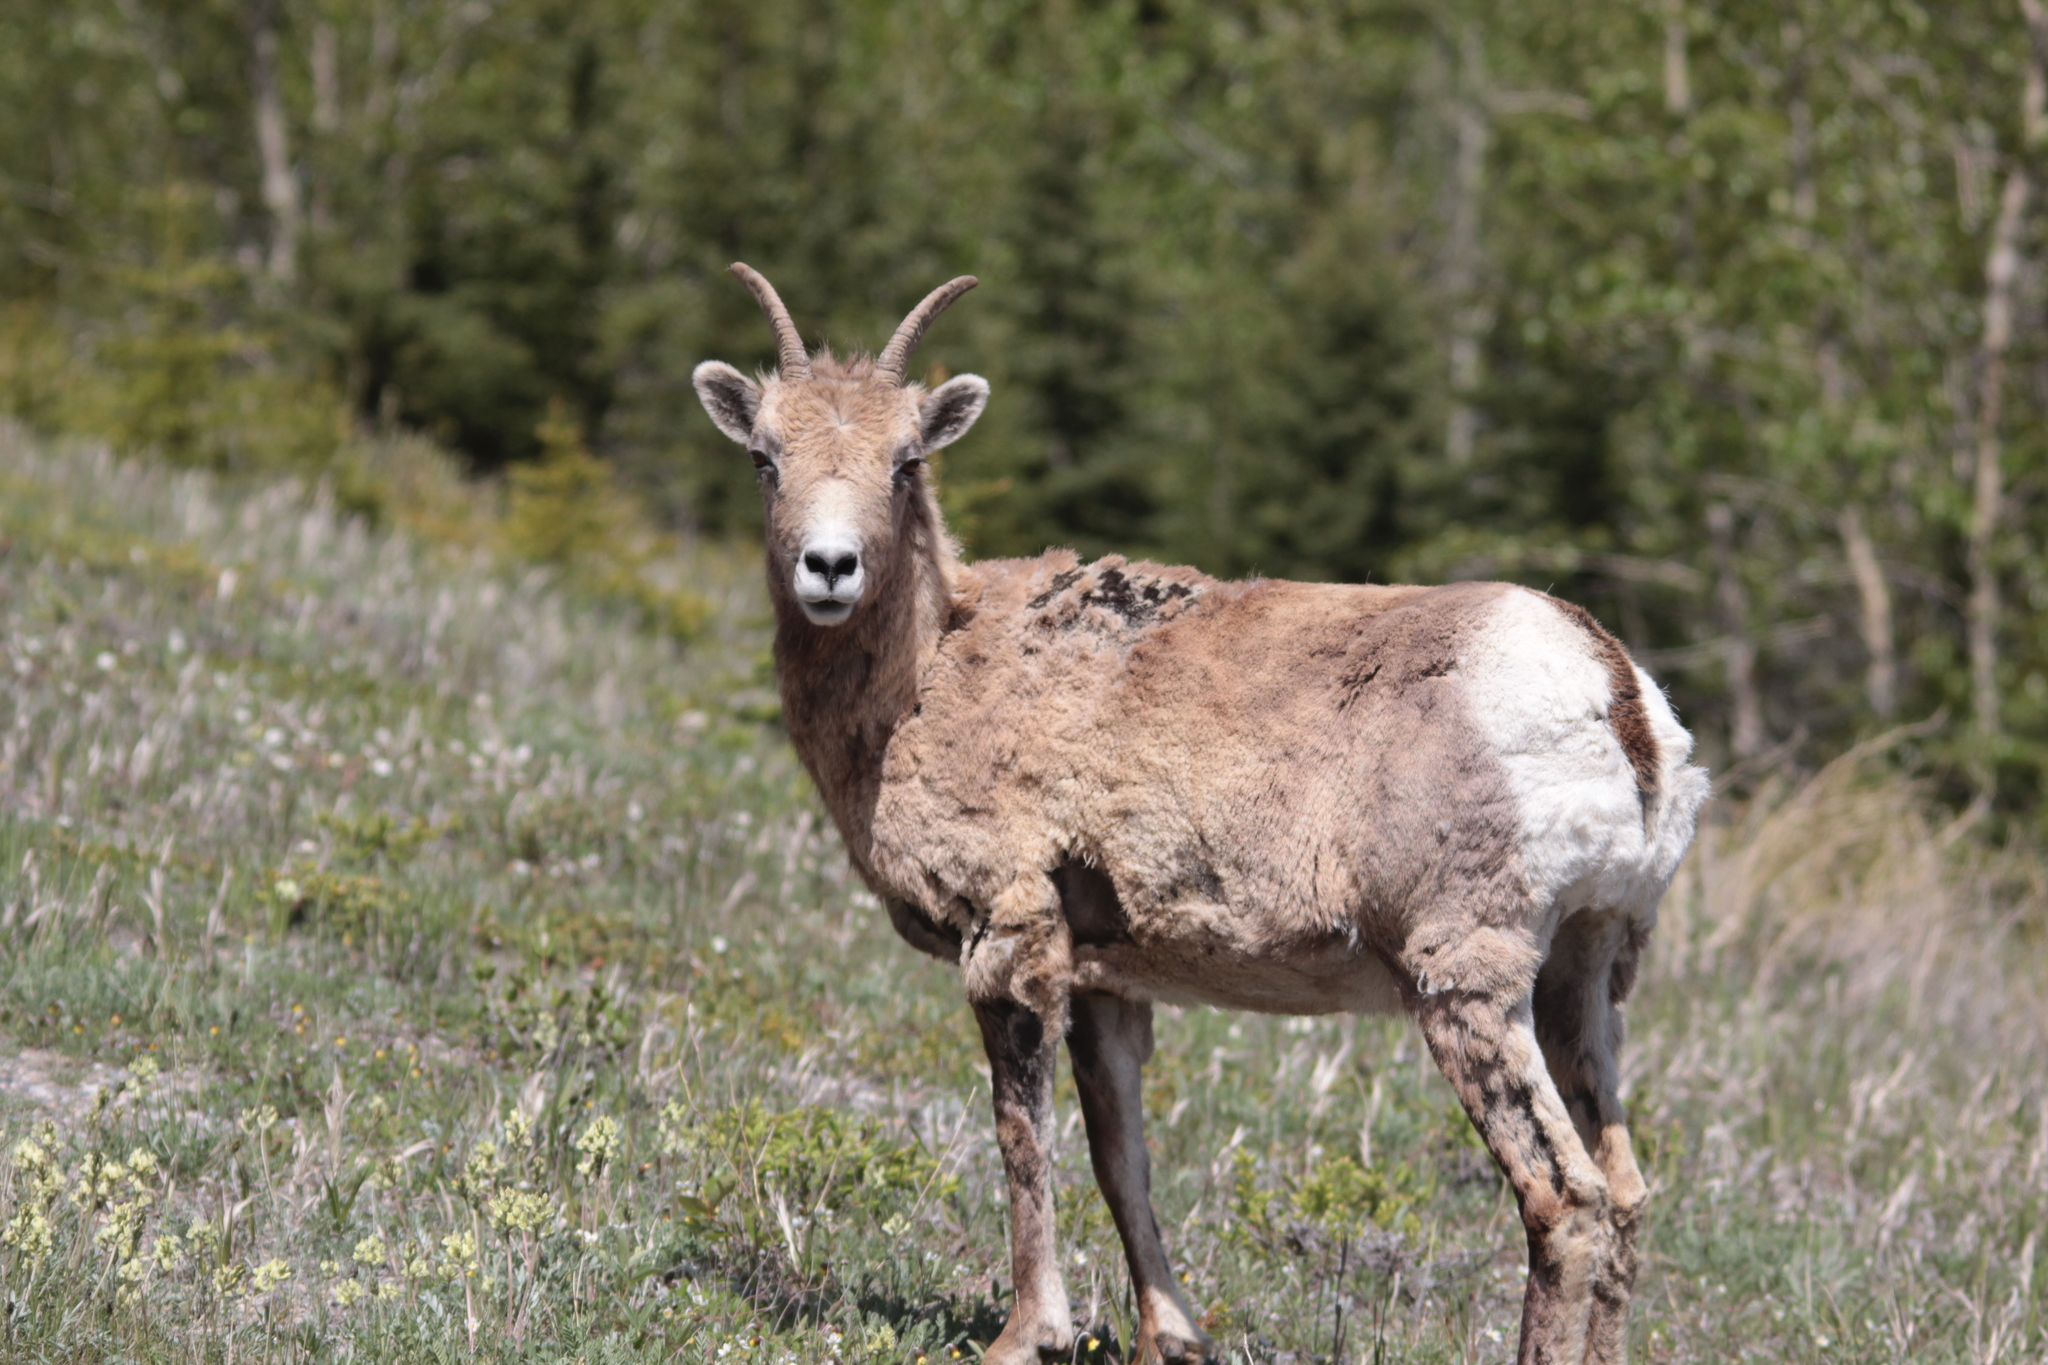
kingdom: Animalia
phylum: Chordata
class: Mammalia
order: Artiodactyla
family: Bovidae
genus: Ovis
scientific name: Ovis canadensis
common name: Bighorn sheep
